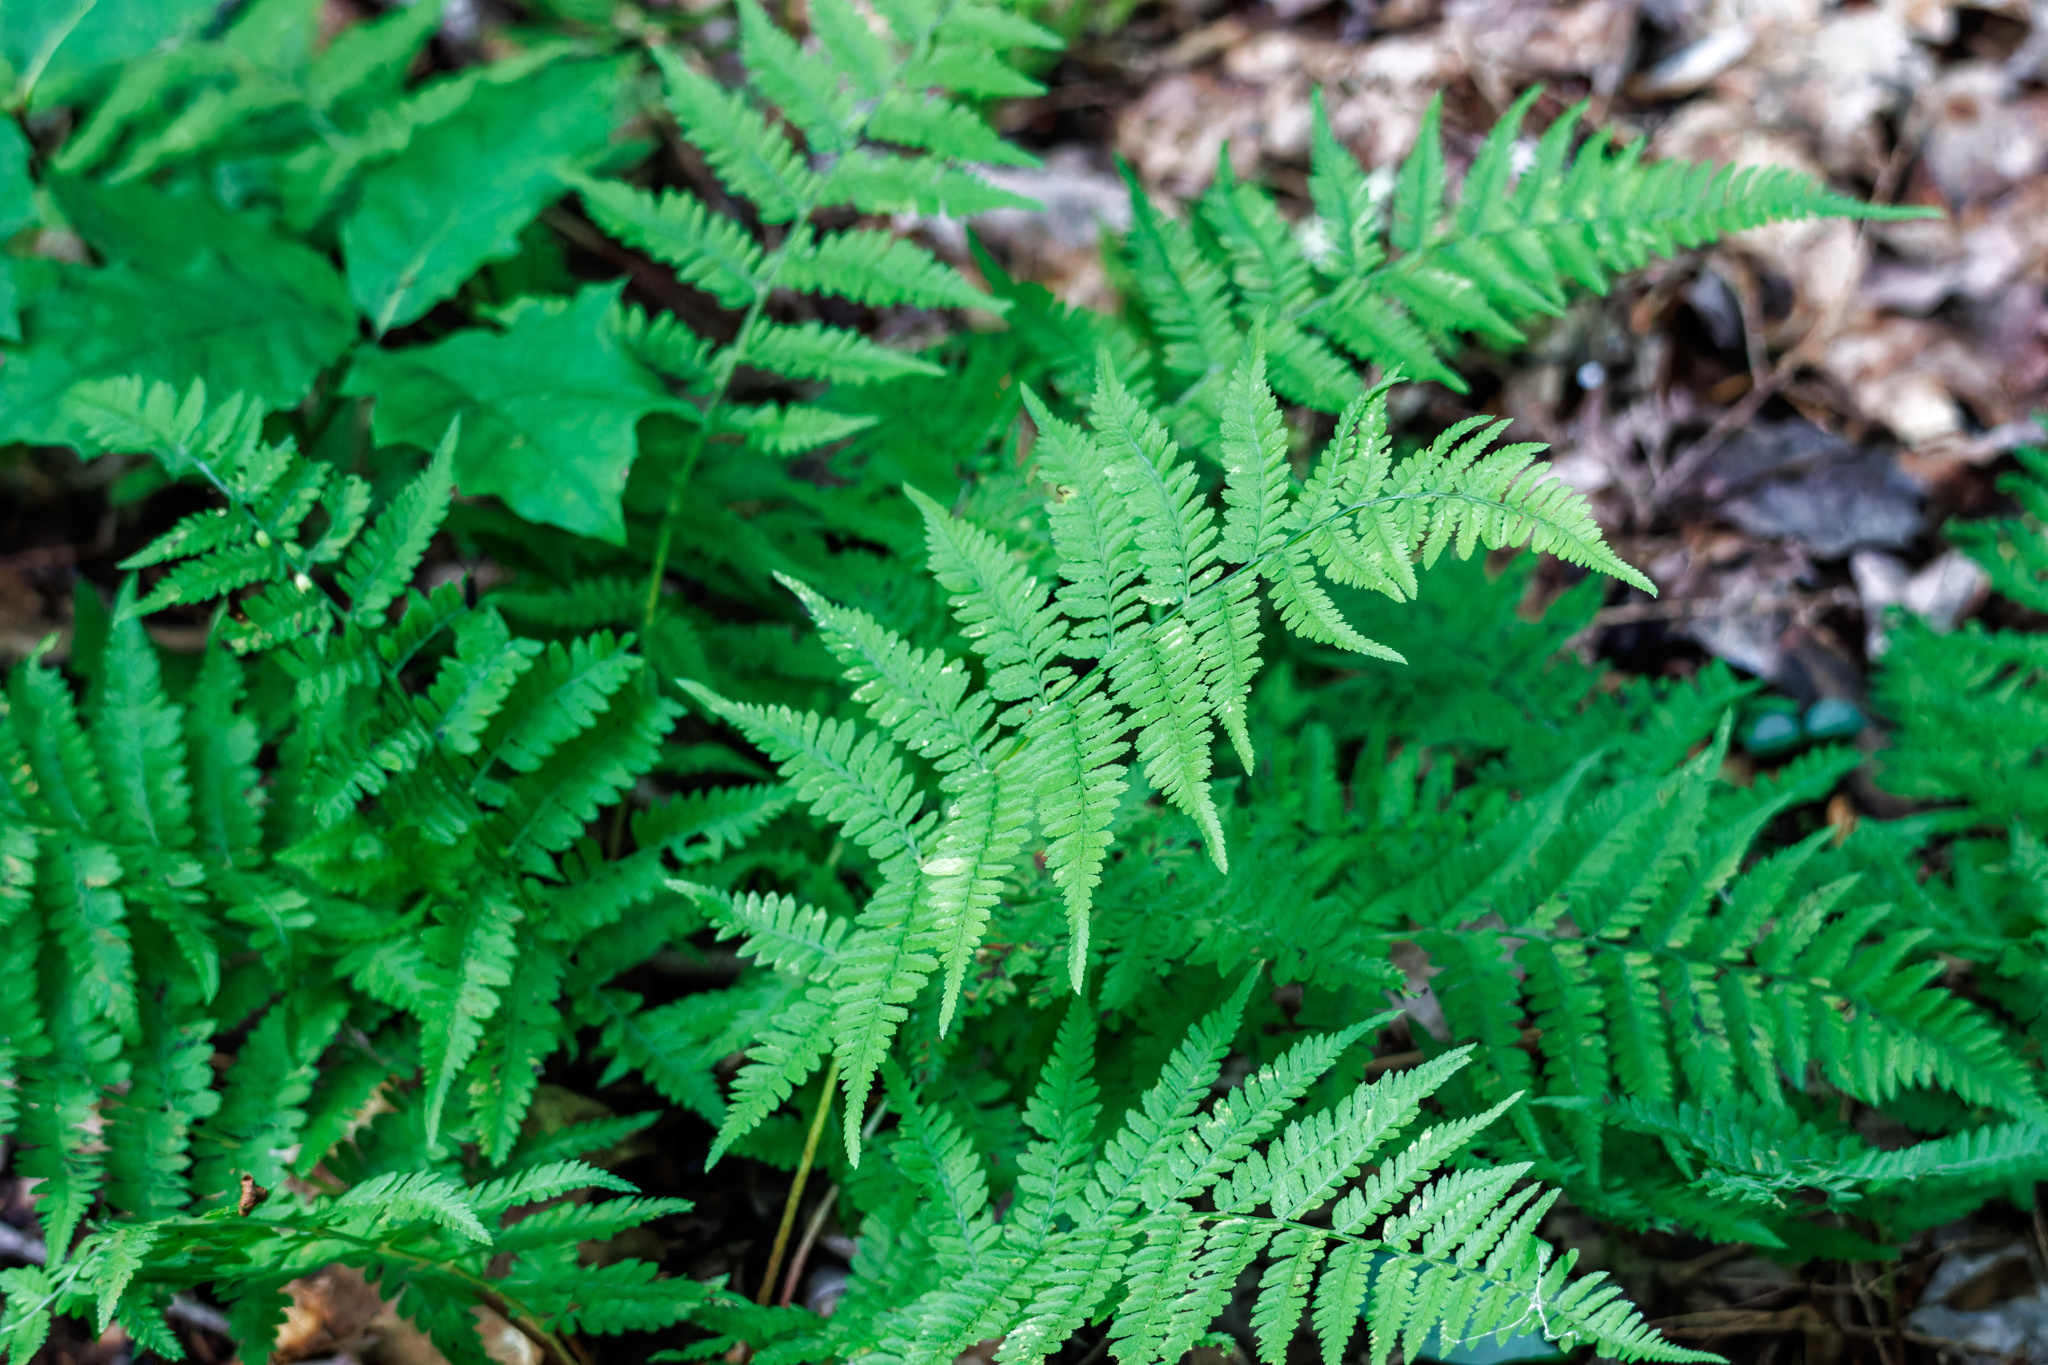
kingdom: Plantae
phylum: Tracheophyta
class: Polypodiopsida
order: Polypodiales
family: Athyriaceae
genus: Athyrium
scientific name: Athyrium asplenioides
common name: Southern lady fern
